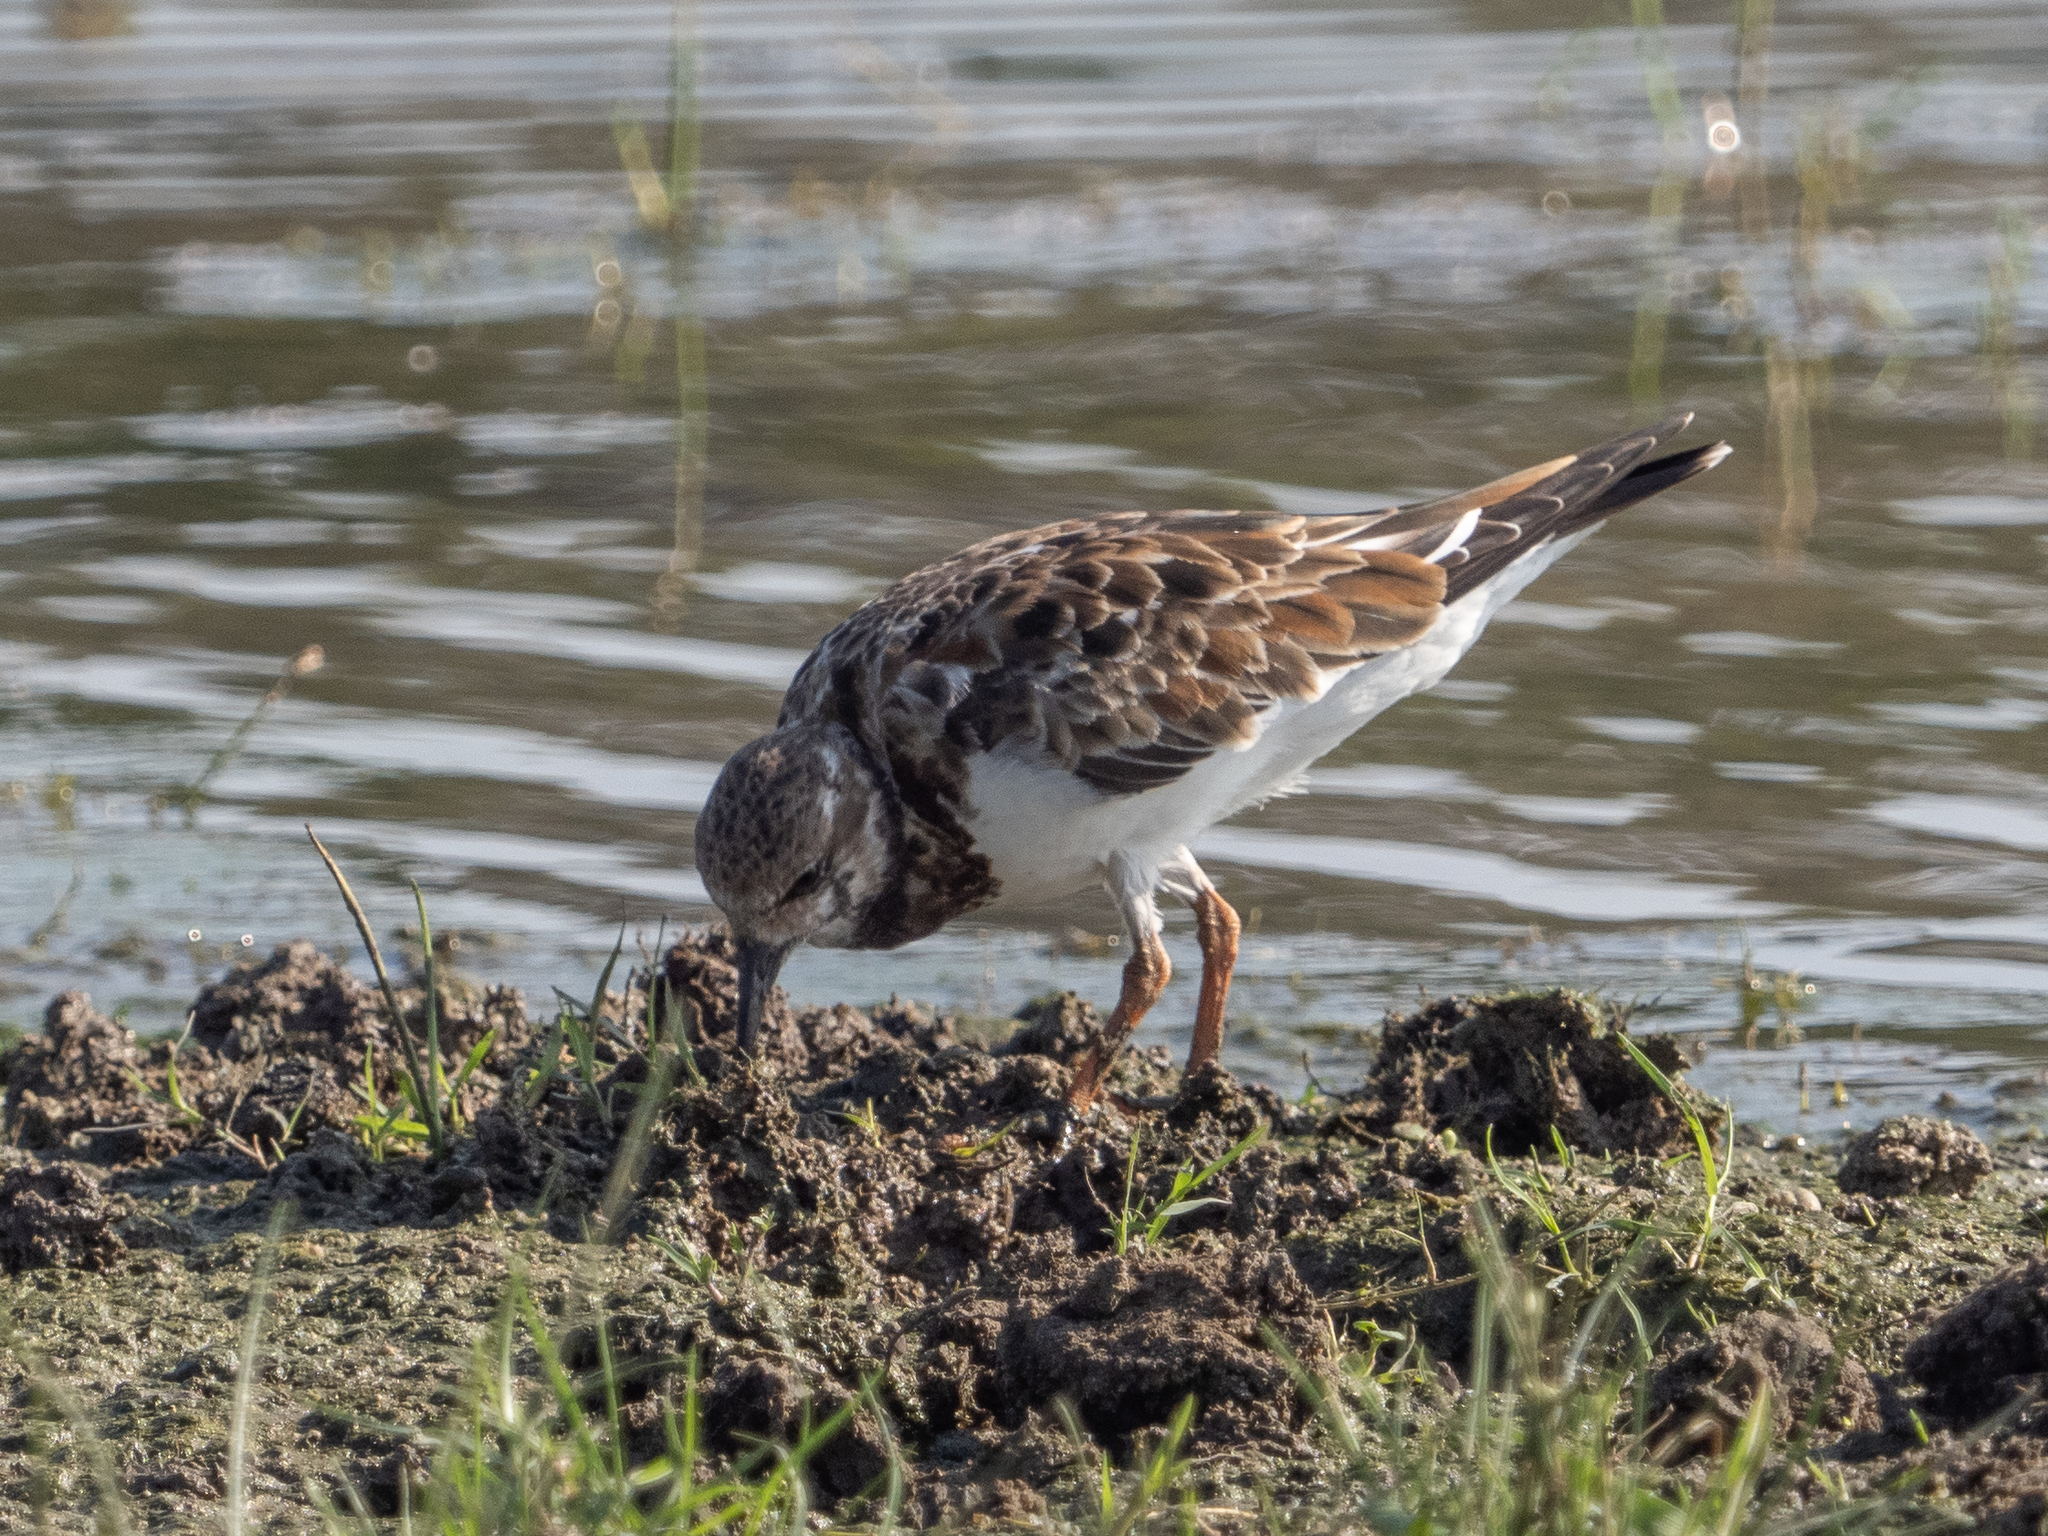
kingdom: Animalia
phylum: Chordata
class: Aves
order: Charadriiformes
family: Scolopacidae
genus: Arenaria
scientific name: Arenaria interpres
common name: Ruddy turnstone
